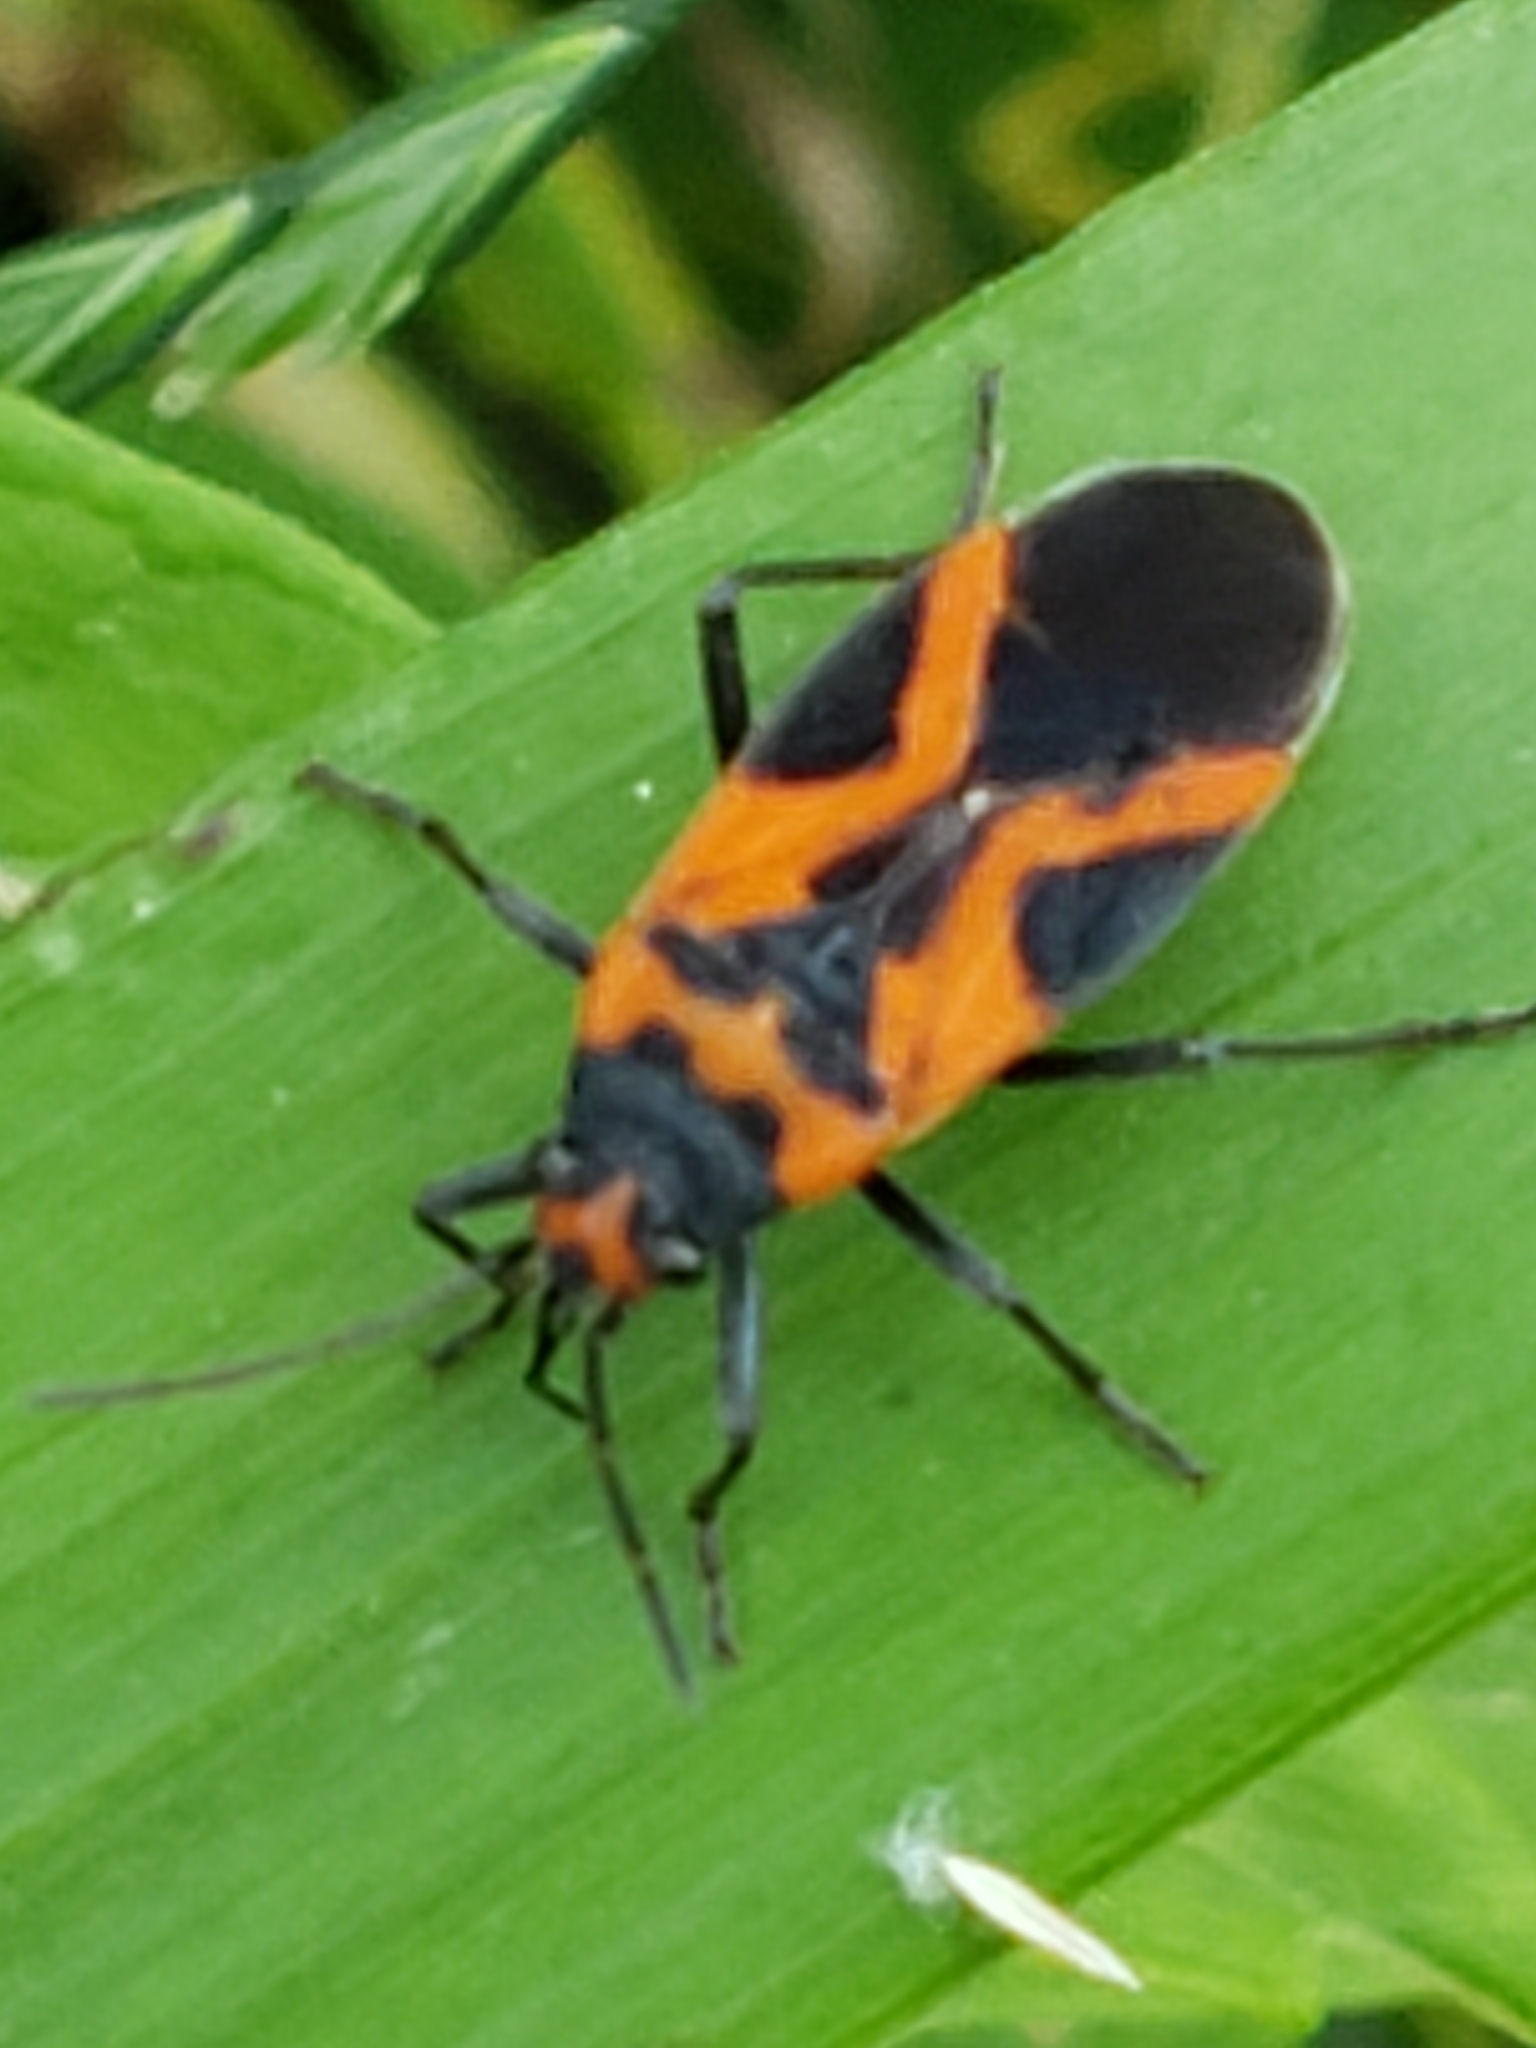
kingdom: Animalia
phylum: Arthropoda
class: Insecta
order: Hemiptera
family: Lygaeidae
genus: Lygaeus
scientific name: Lygaeus turcicus
